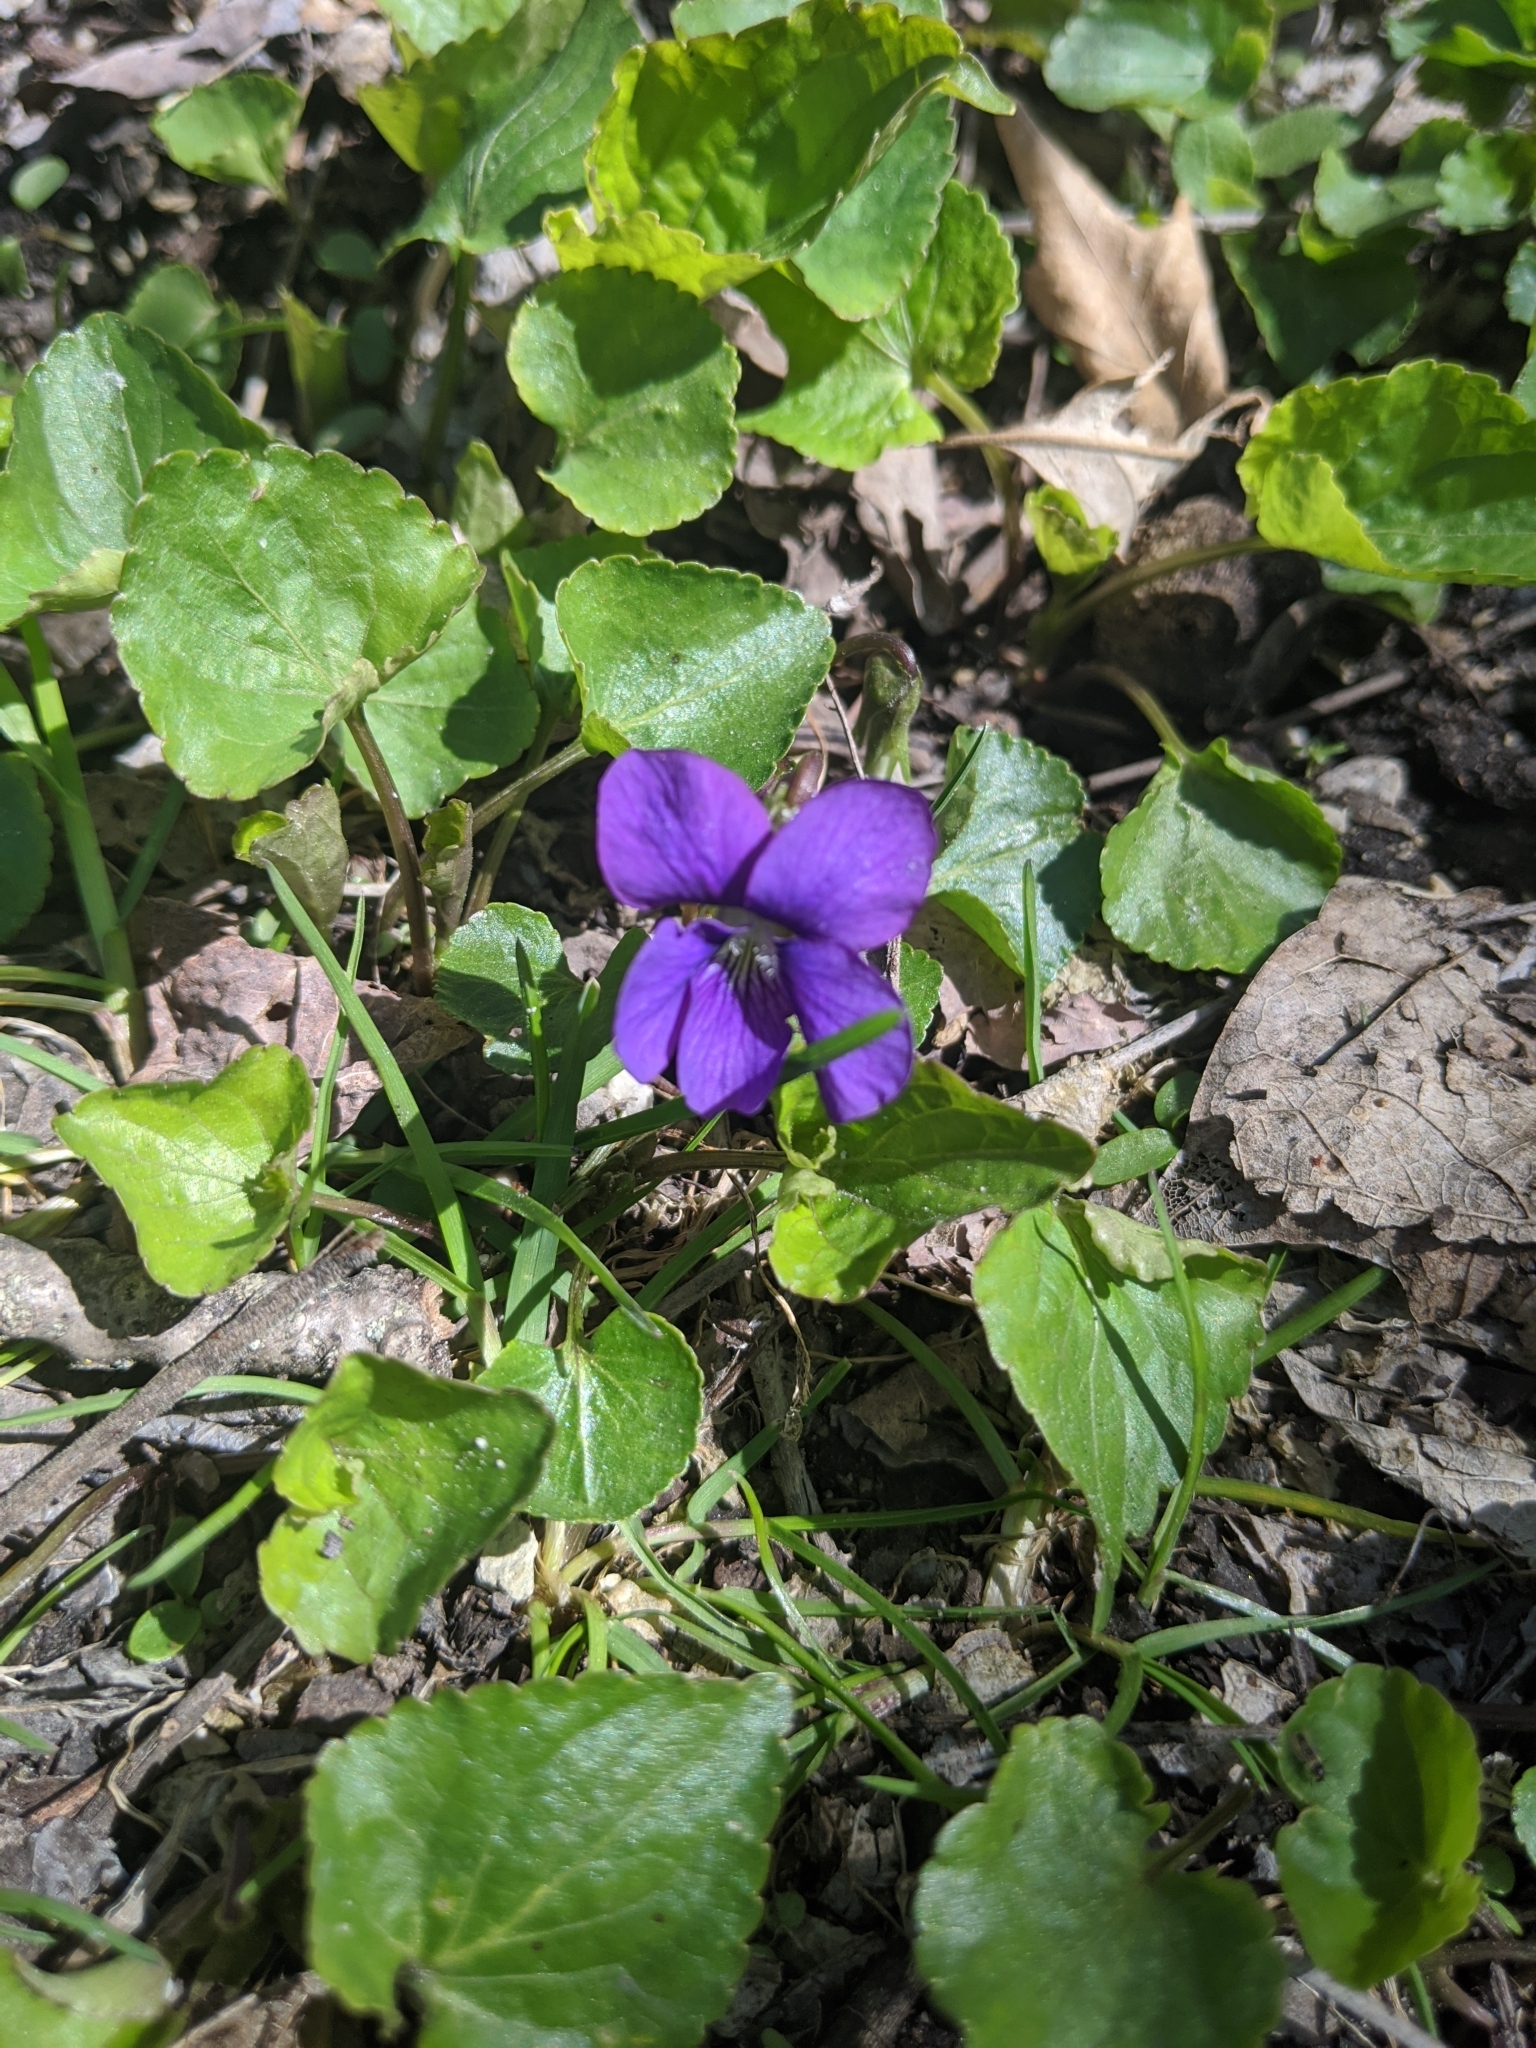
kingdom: Plantae
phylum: Tracheophyta
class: Magnoliopsida
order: Malpighiales
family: Violaceae
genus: Viola
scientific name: Viola sororia
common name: Dooryard violet
